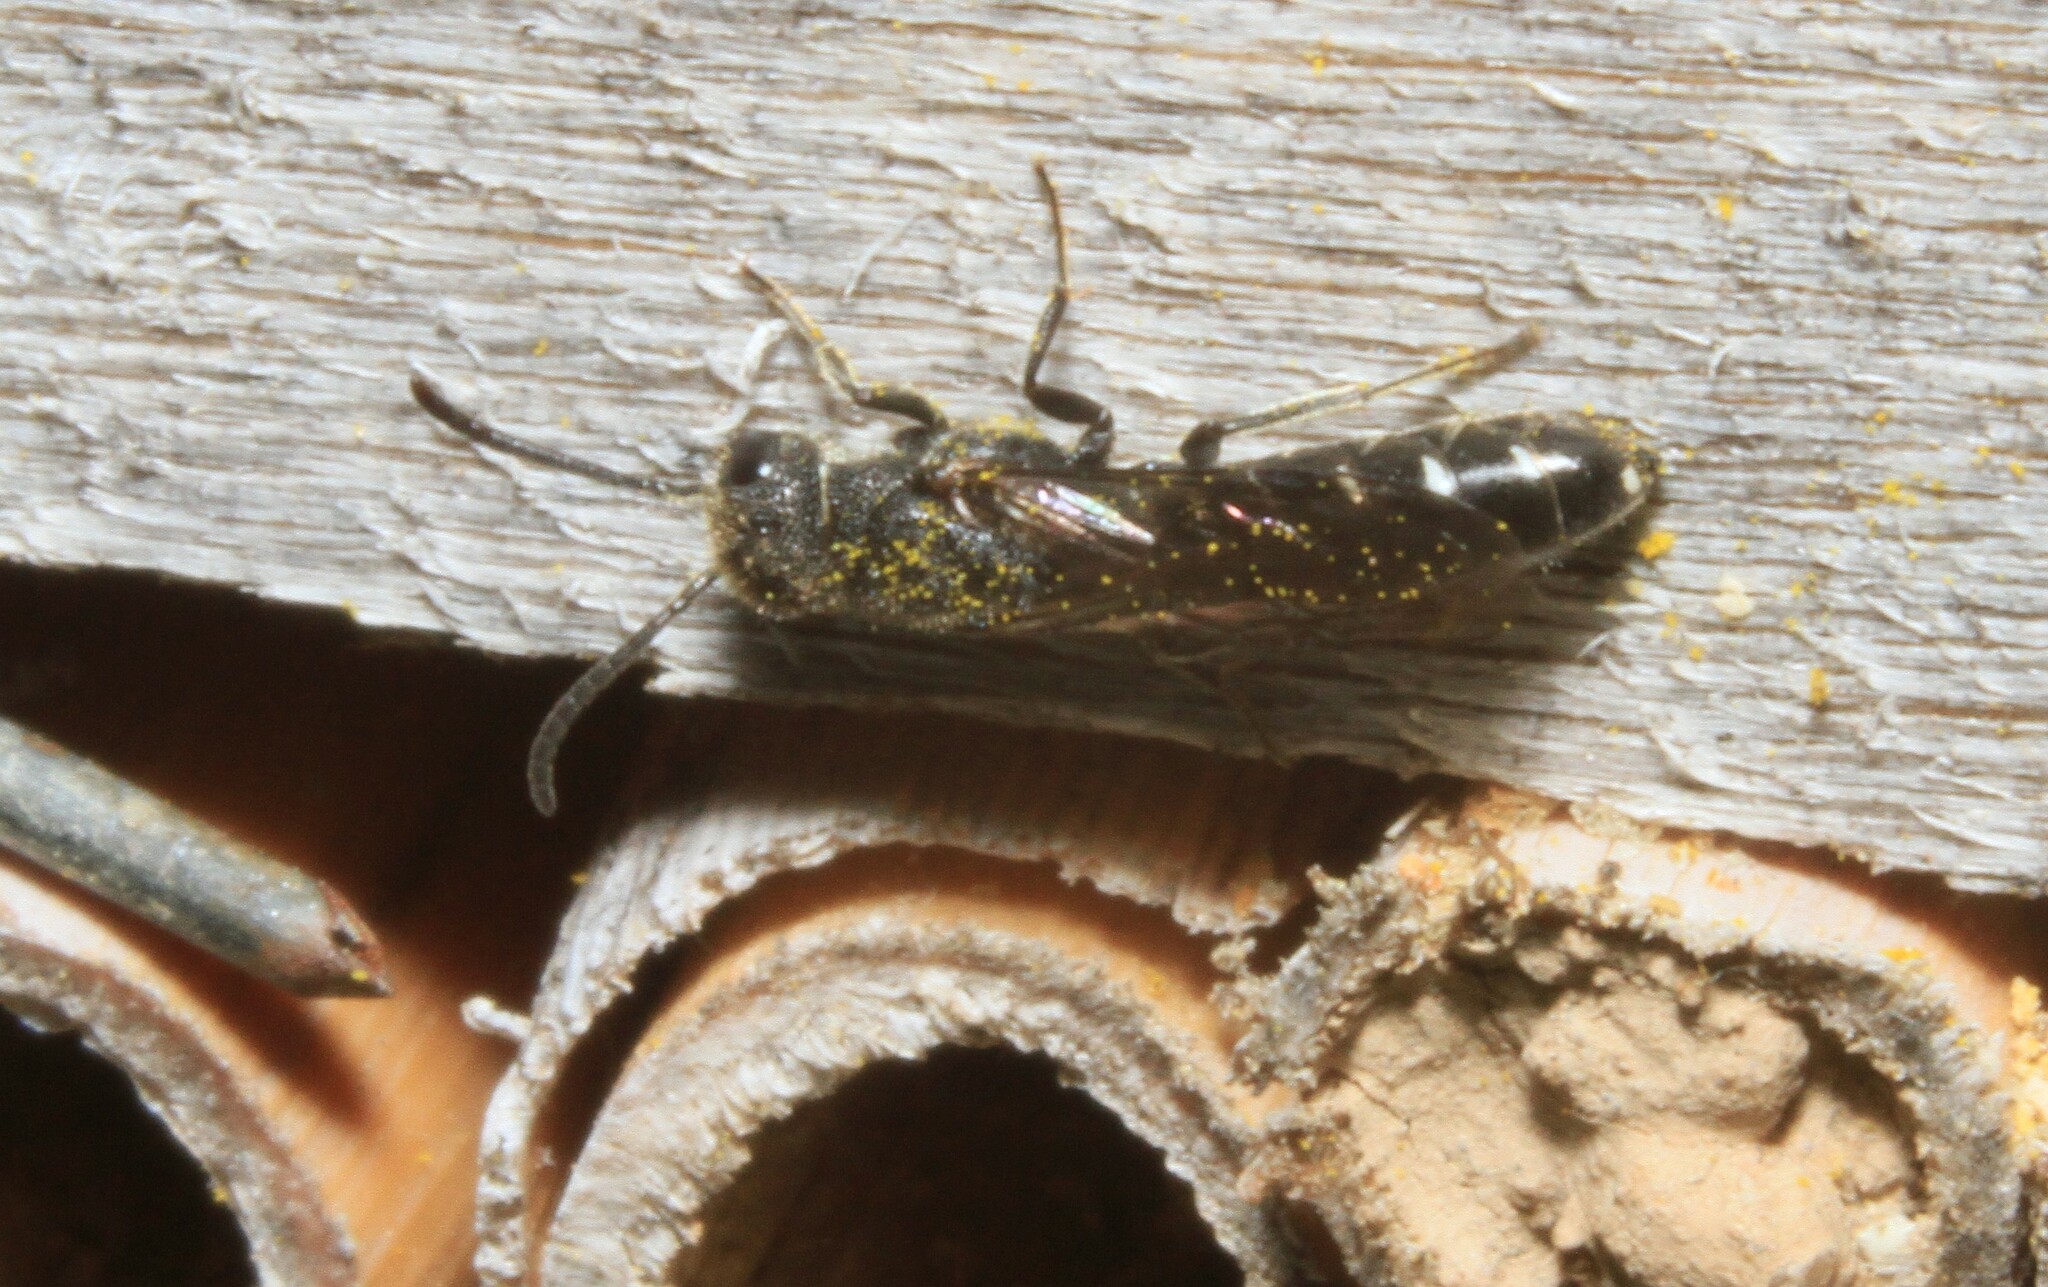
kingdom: Animalia
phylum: Arthropoda
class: Insecta
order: Hymenoptera
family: Sapygidae
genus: Sapygina
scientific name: Sapygina decemguttata
